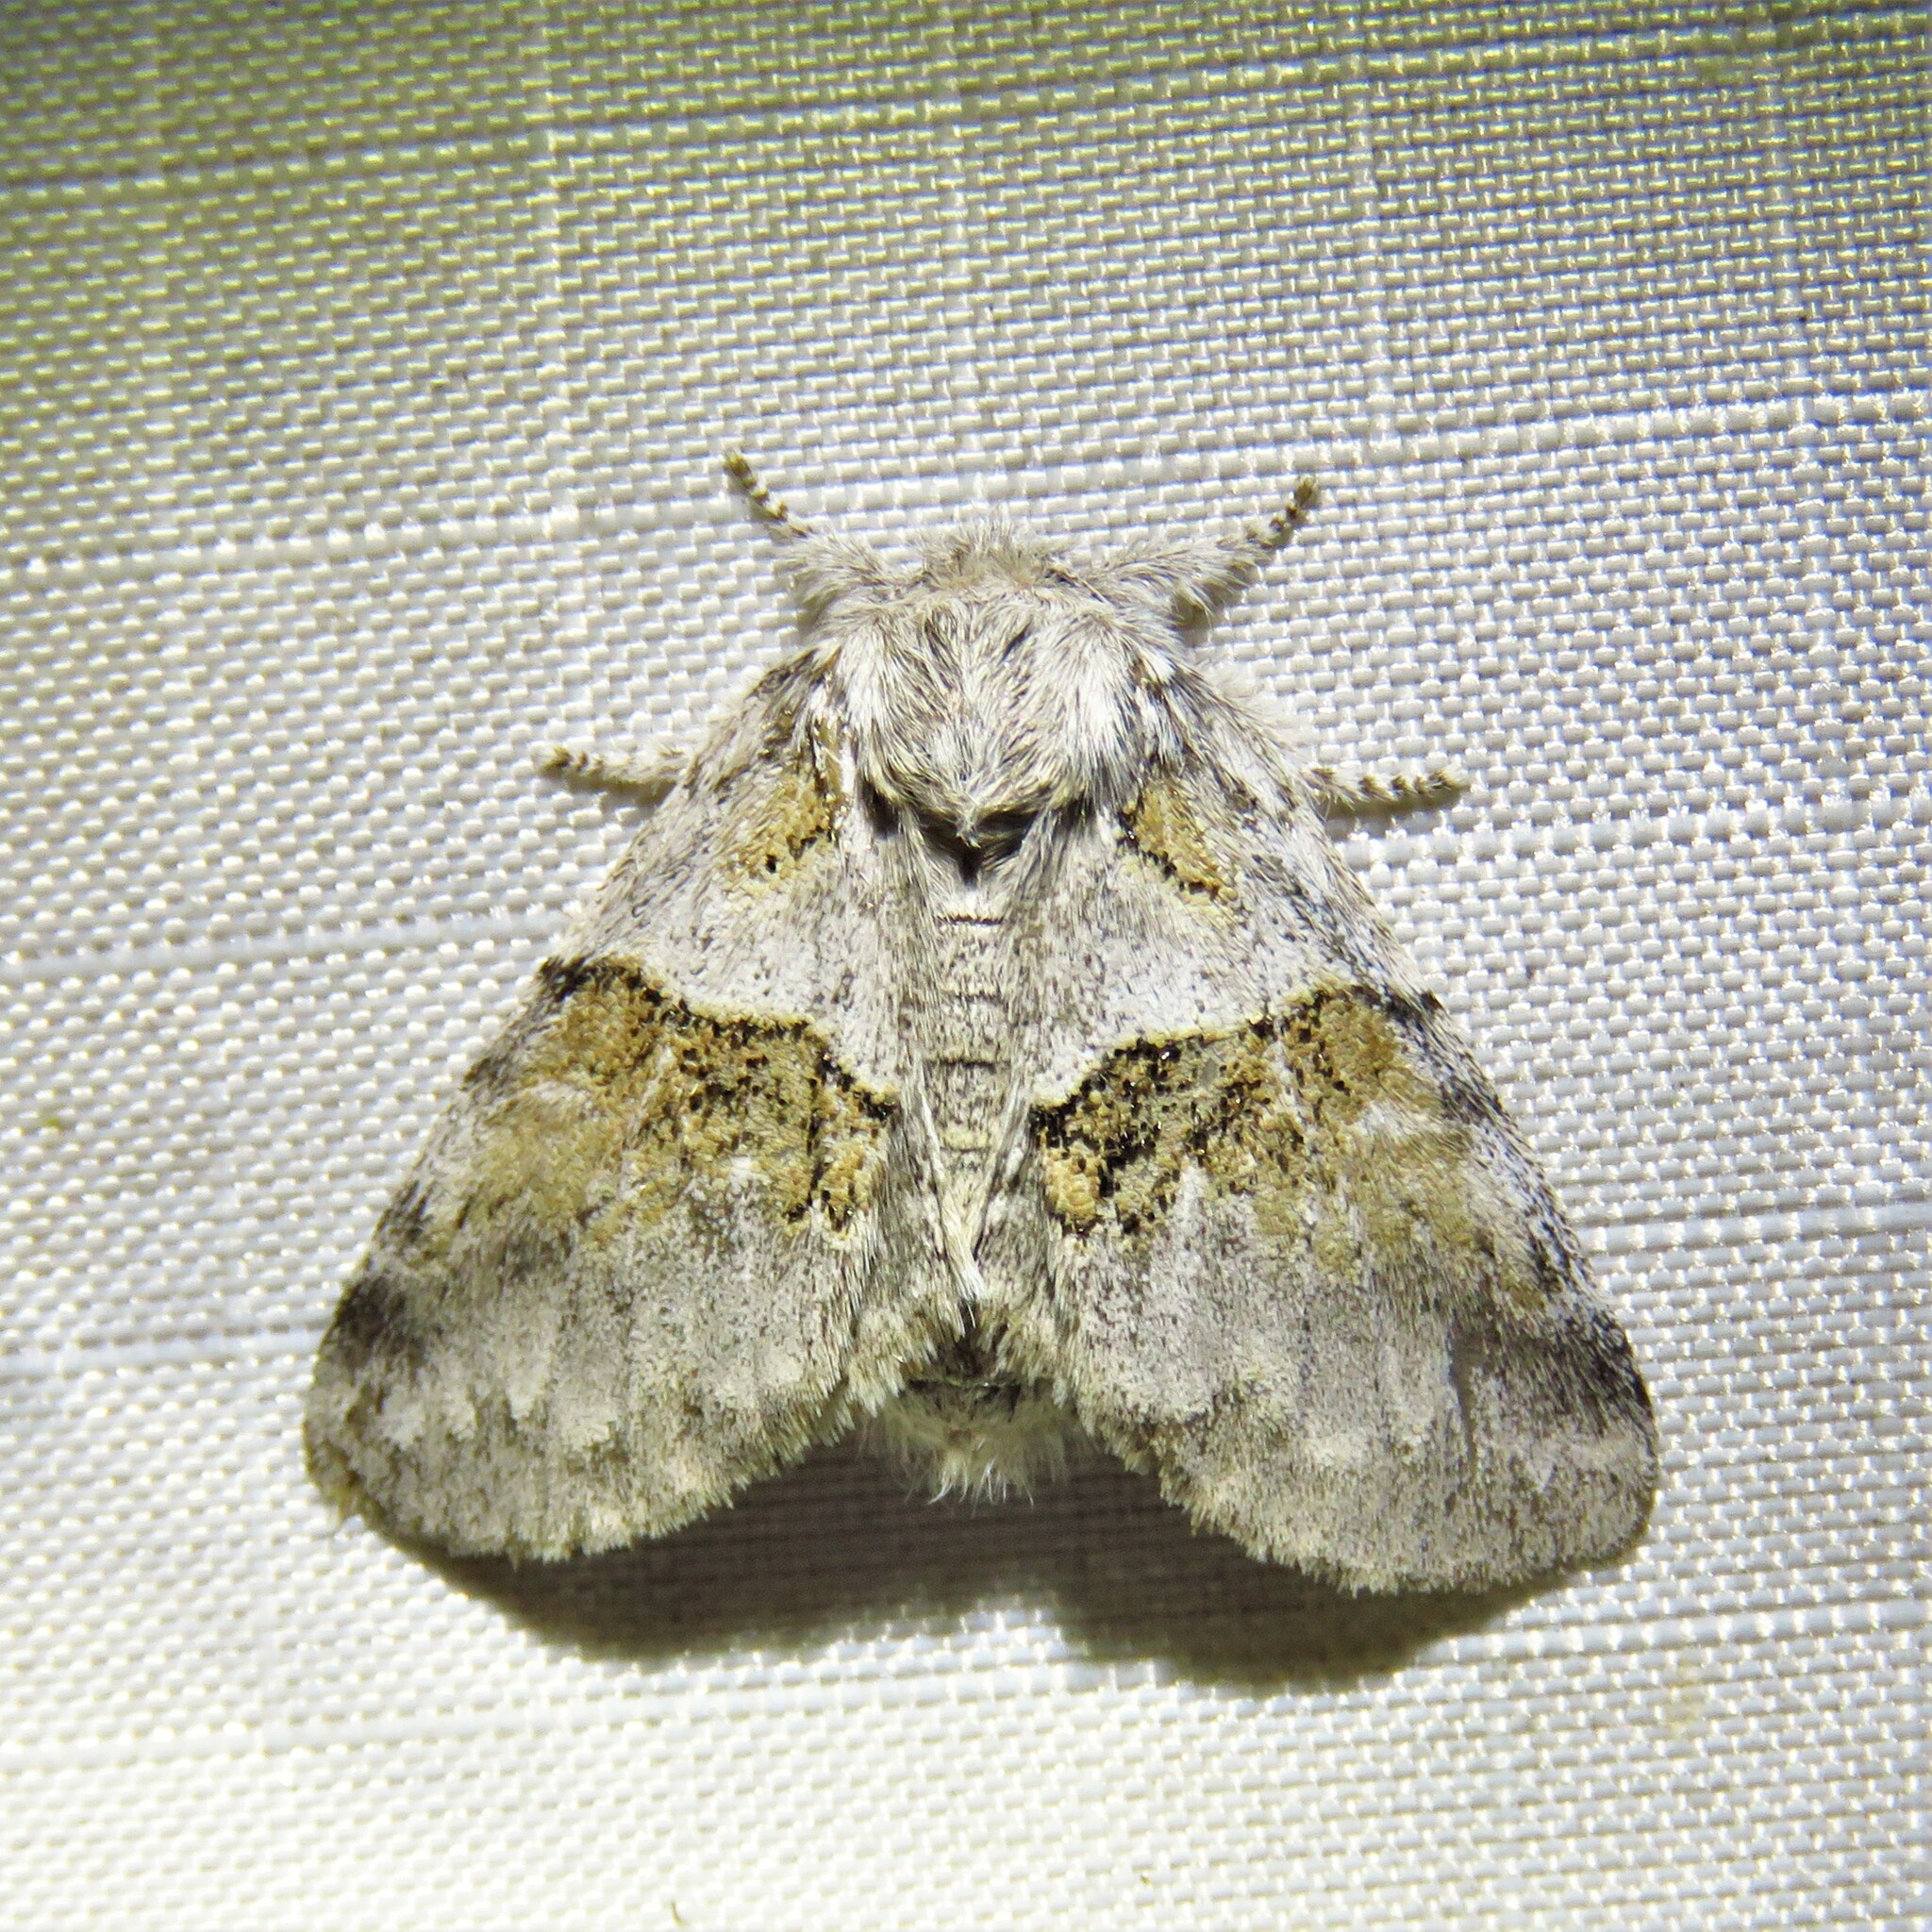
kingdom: Animalia
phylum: Arthropoda
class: Insecta
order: Lepidoptera
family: Notodontidae
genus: Gluphisia
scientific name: Gluphisia septentrionis
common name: Common gluphisia
